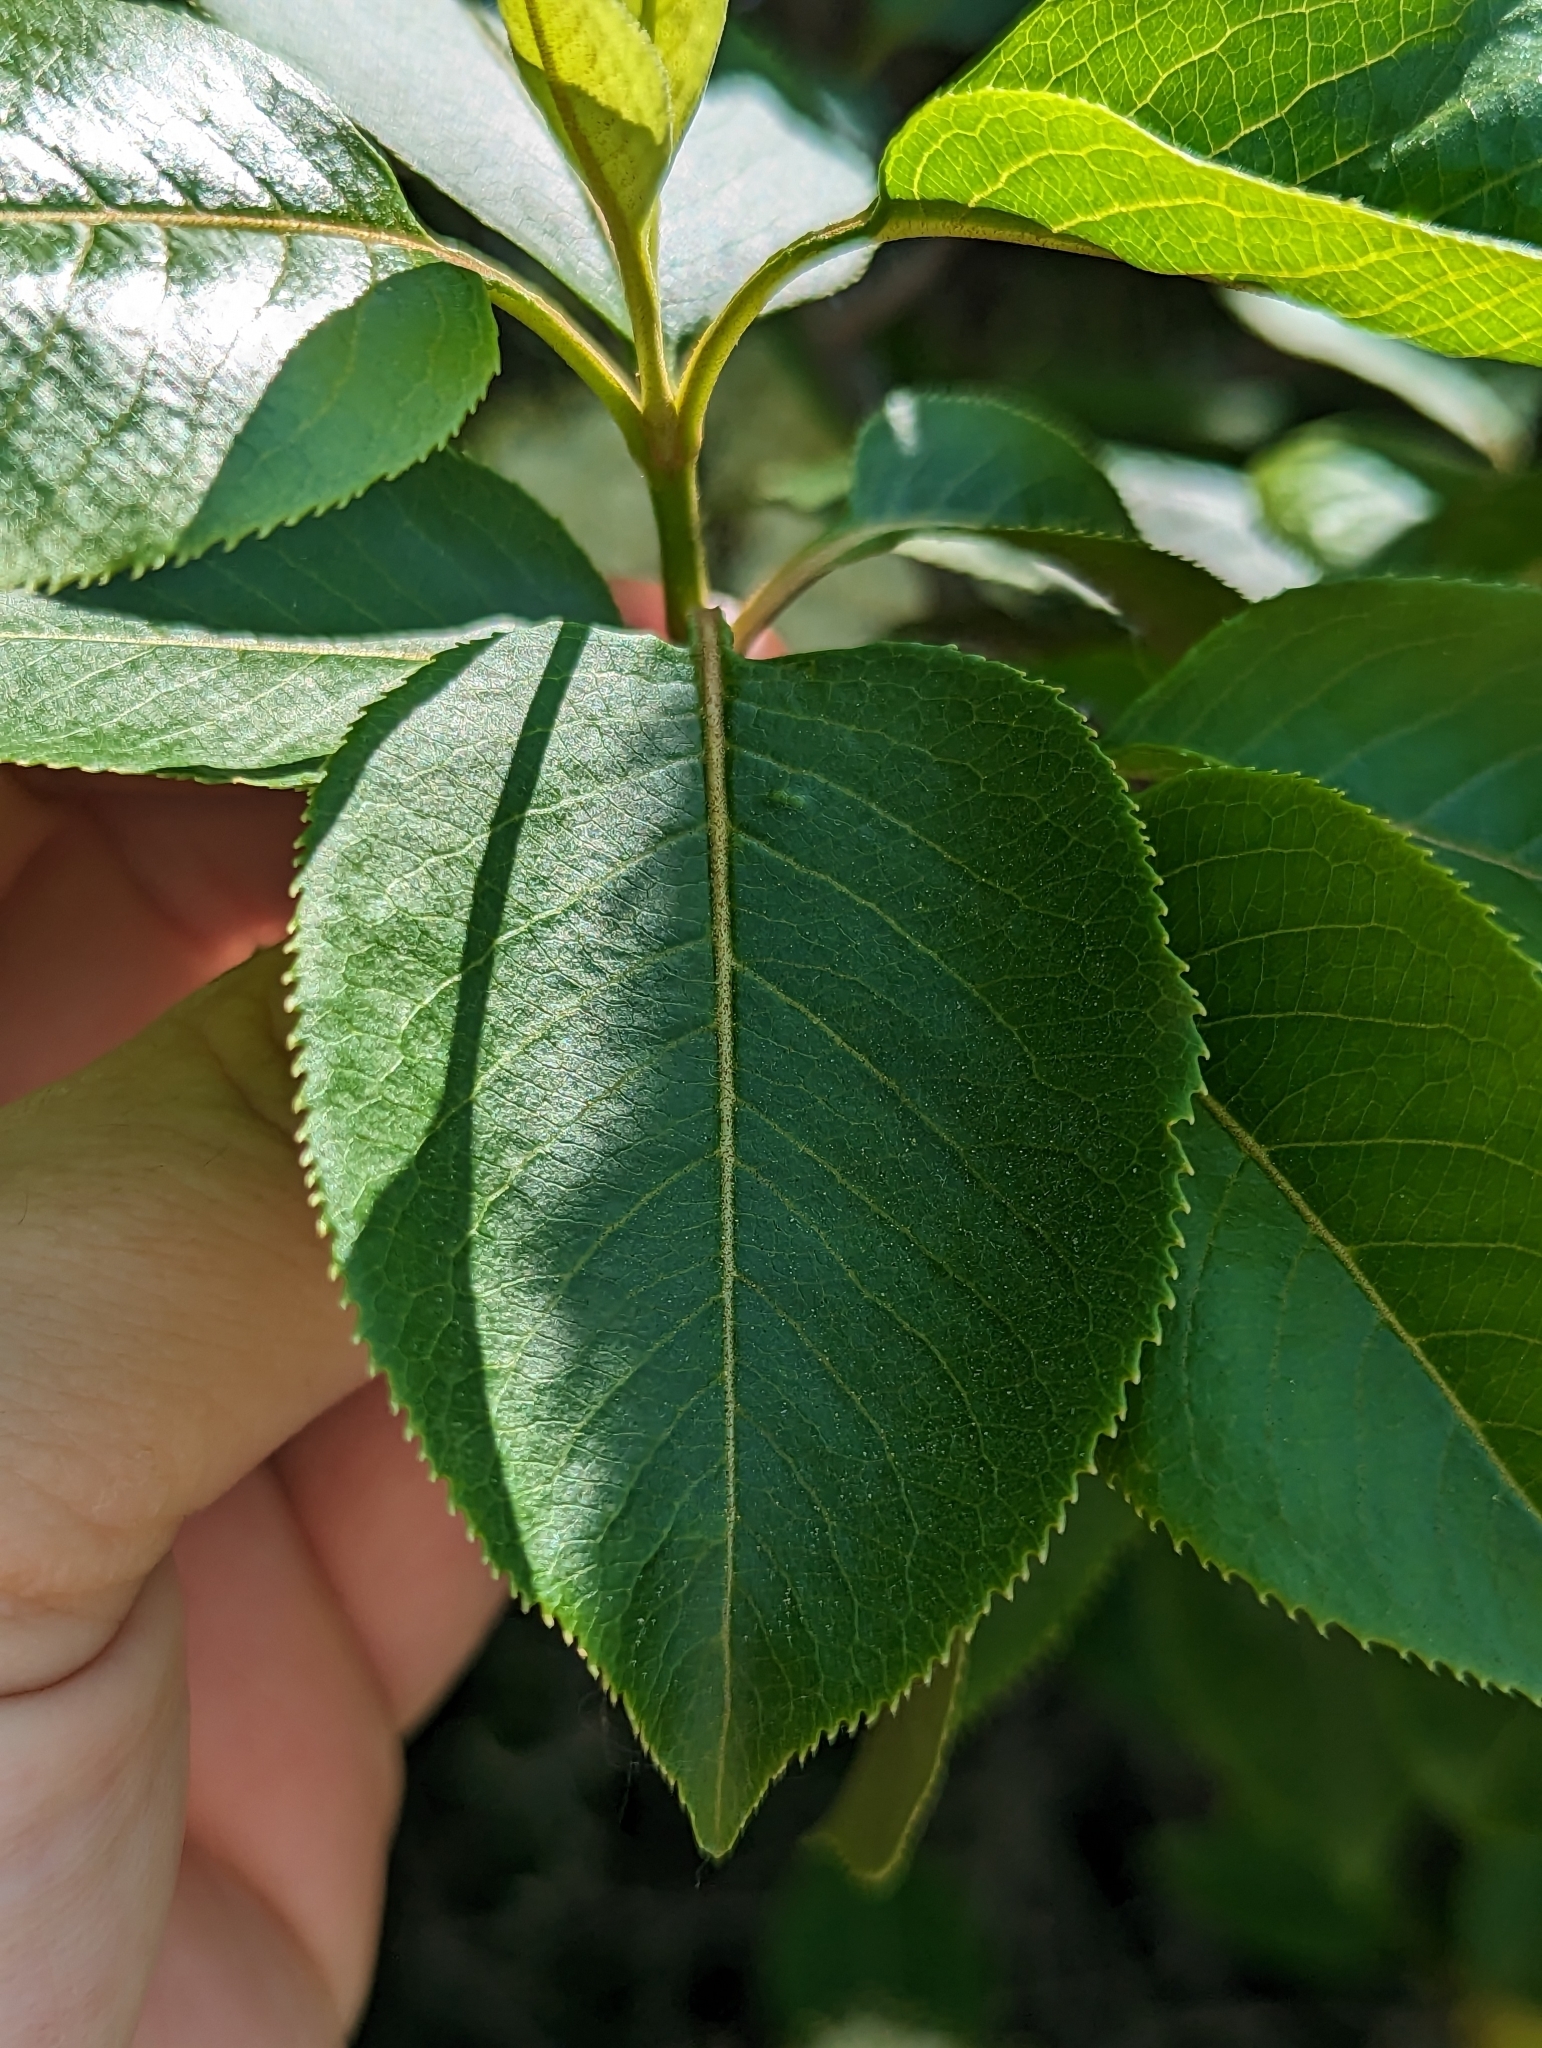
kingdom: Plantae
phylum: Tracheophyta
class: Magnoliopsida
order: Dipsacales
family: Viburnaceae
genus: Viburnum
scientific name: Viburnum lentago
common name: Black haw
